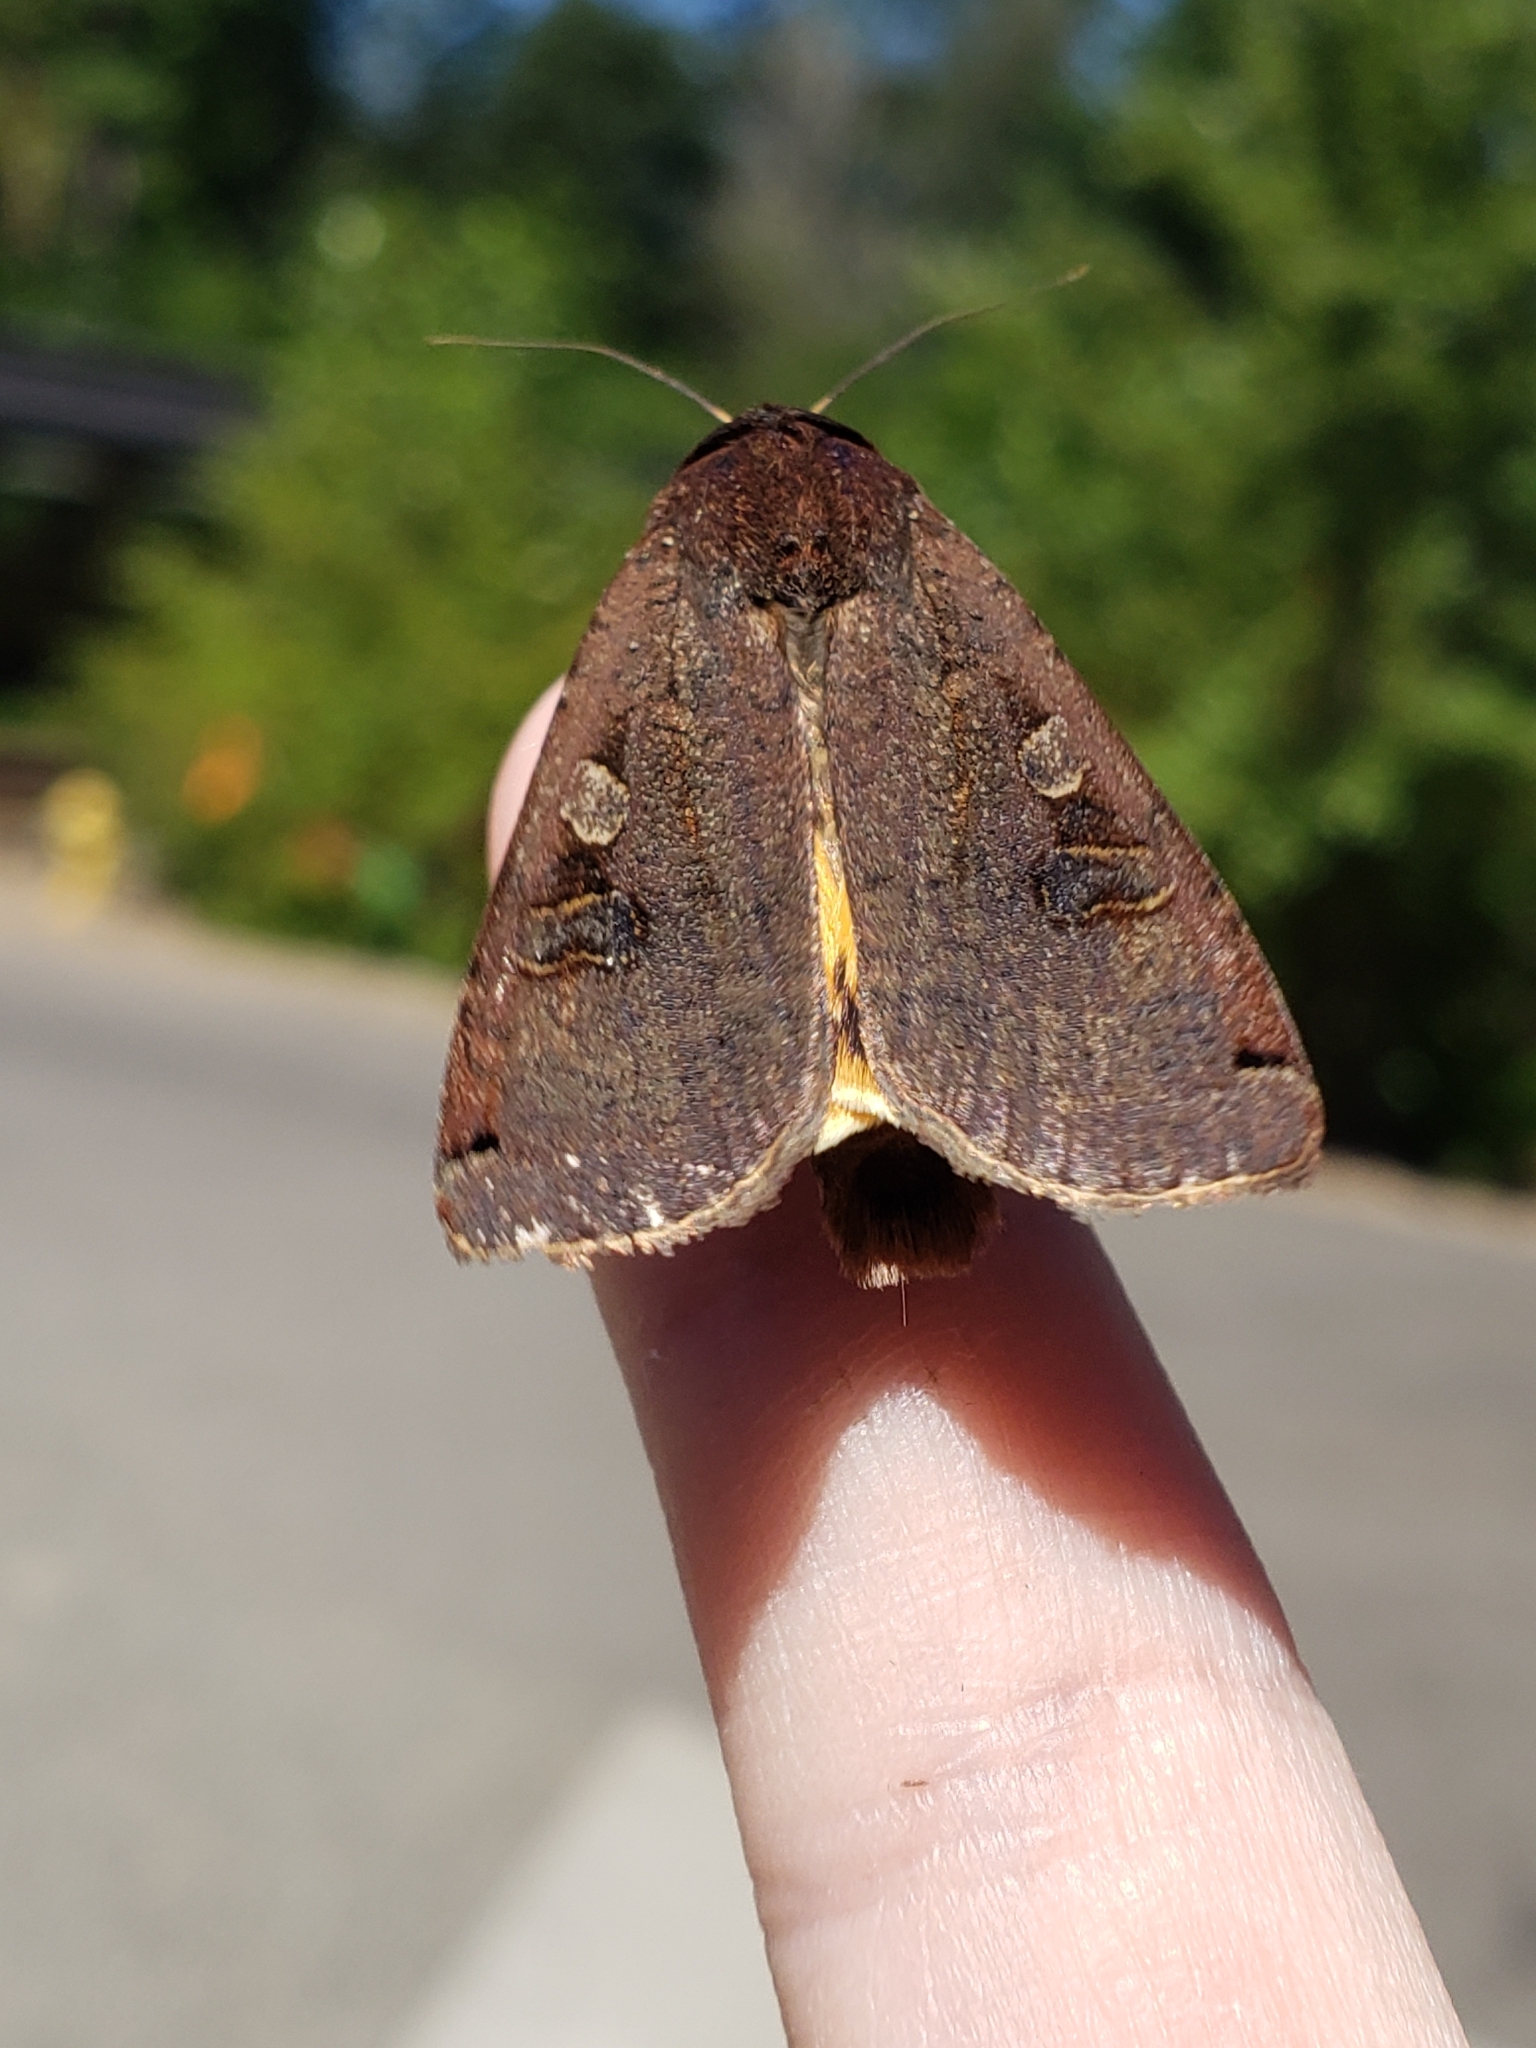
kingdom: Animalia
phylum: Arthropoda
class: Insecta
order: Lepidoptera
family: Noctuidae
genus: Noctua
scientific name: Noctua pronuba
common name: Large yellow underwing
